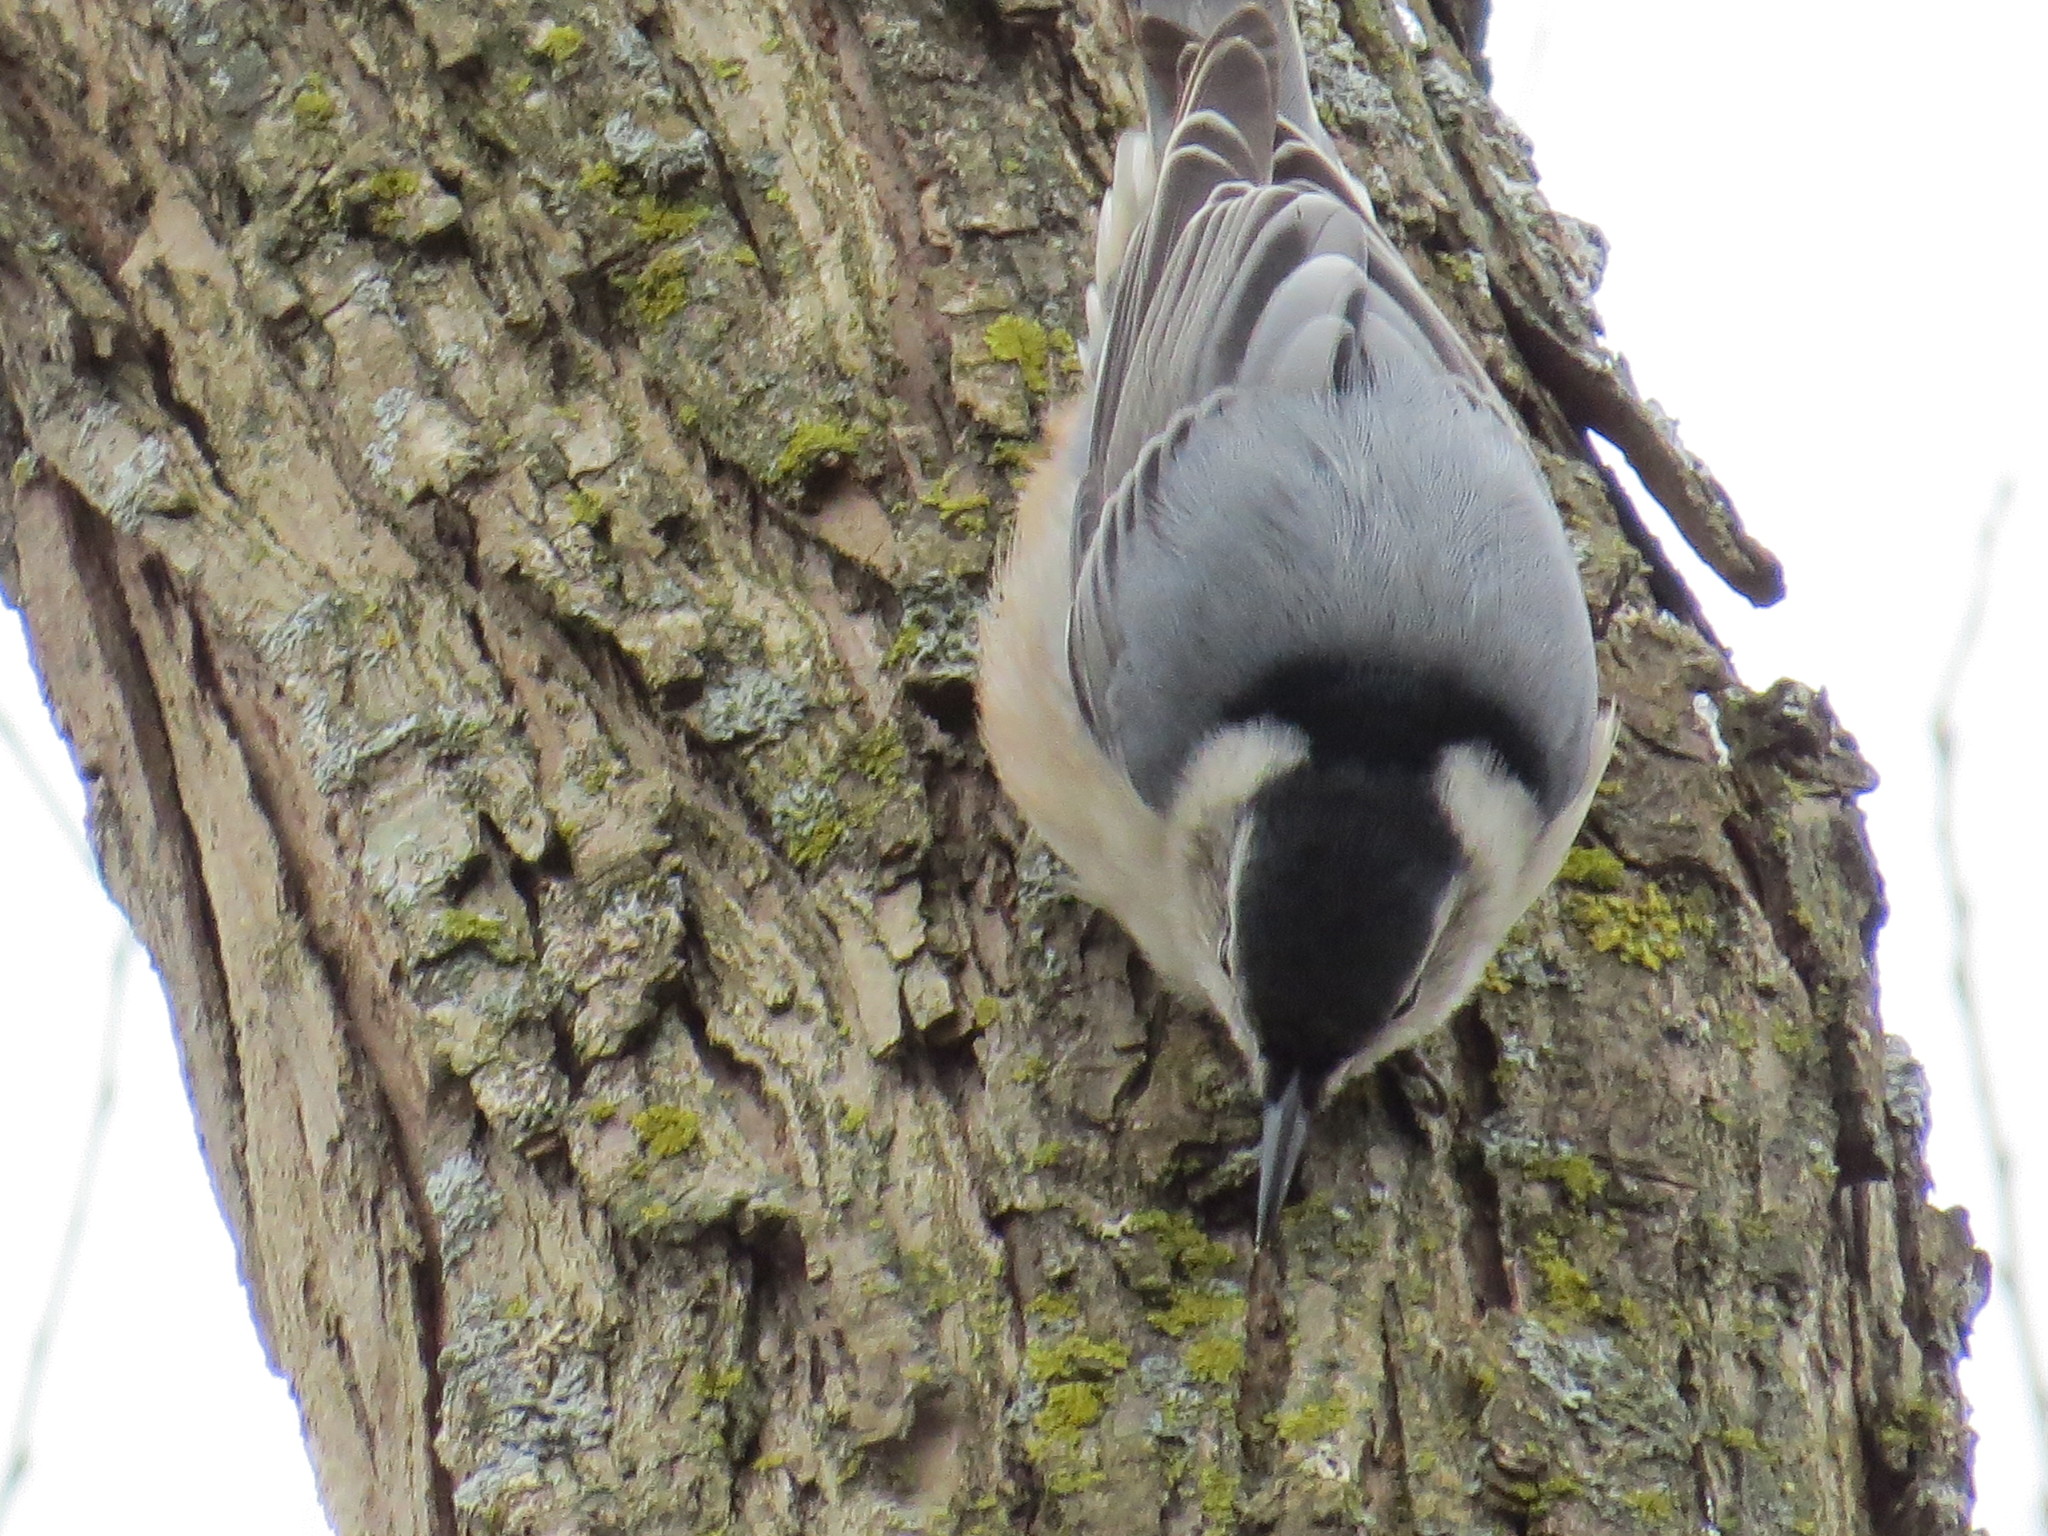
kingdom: Animalia
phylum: Chordata
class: Aves
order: Passeriformes
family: Sittidae
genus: Sitta
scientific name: Sitta carolinensis
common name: White-breasted nuthatch
